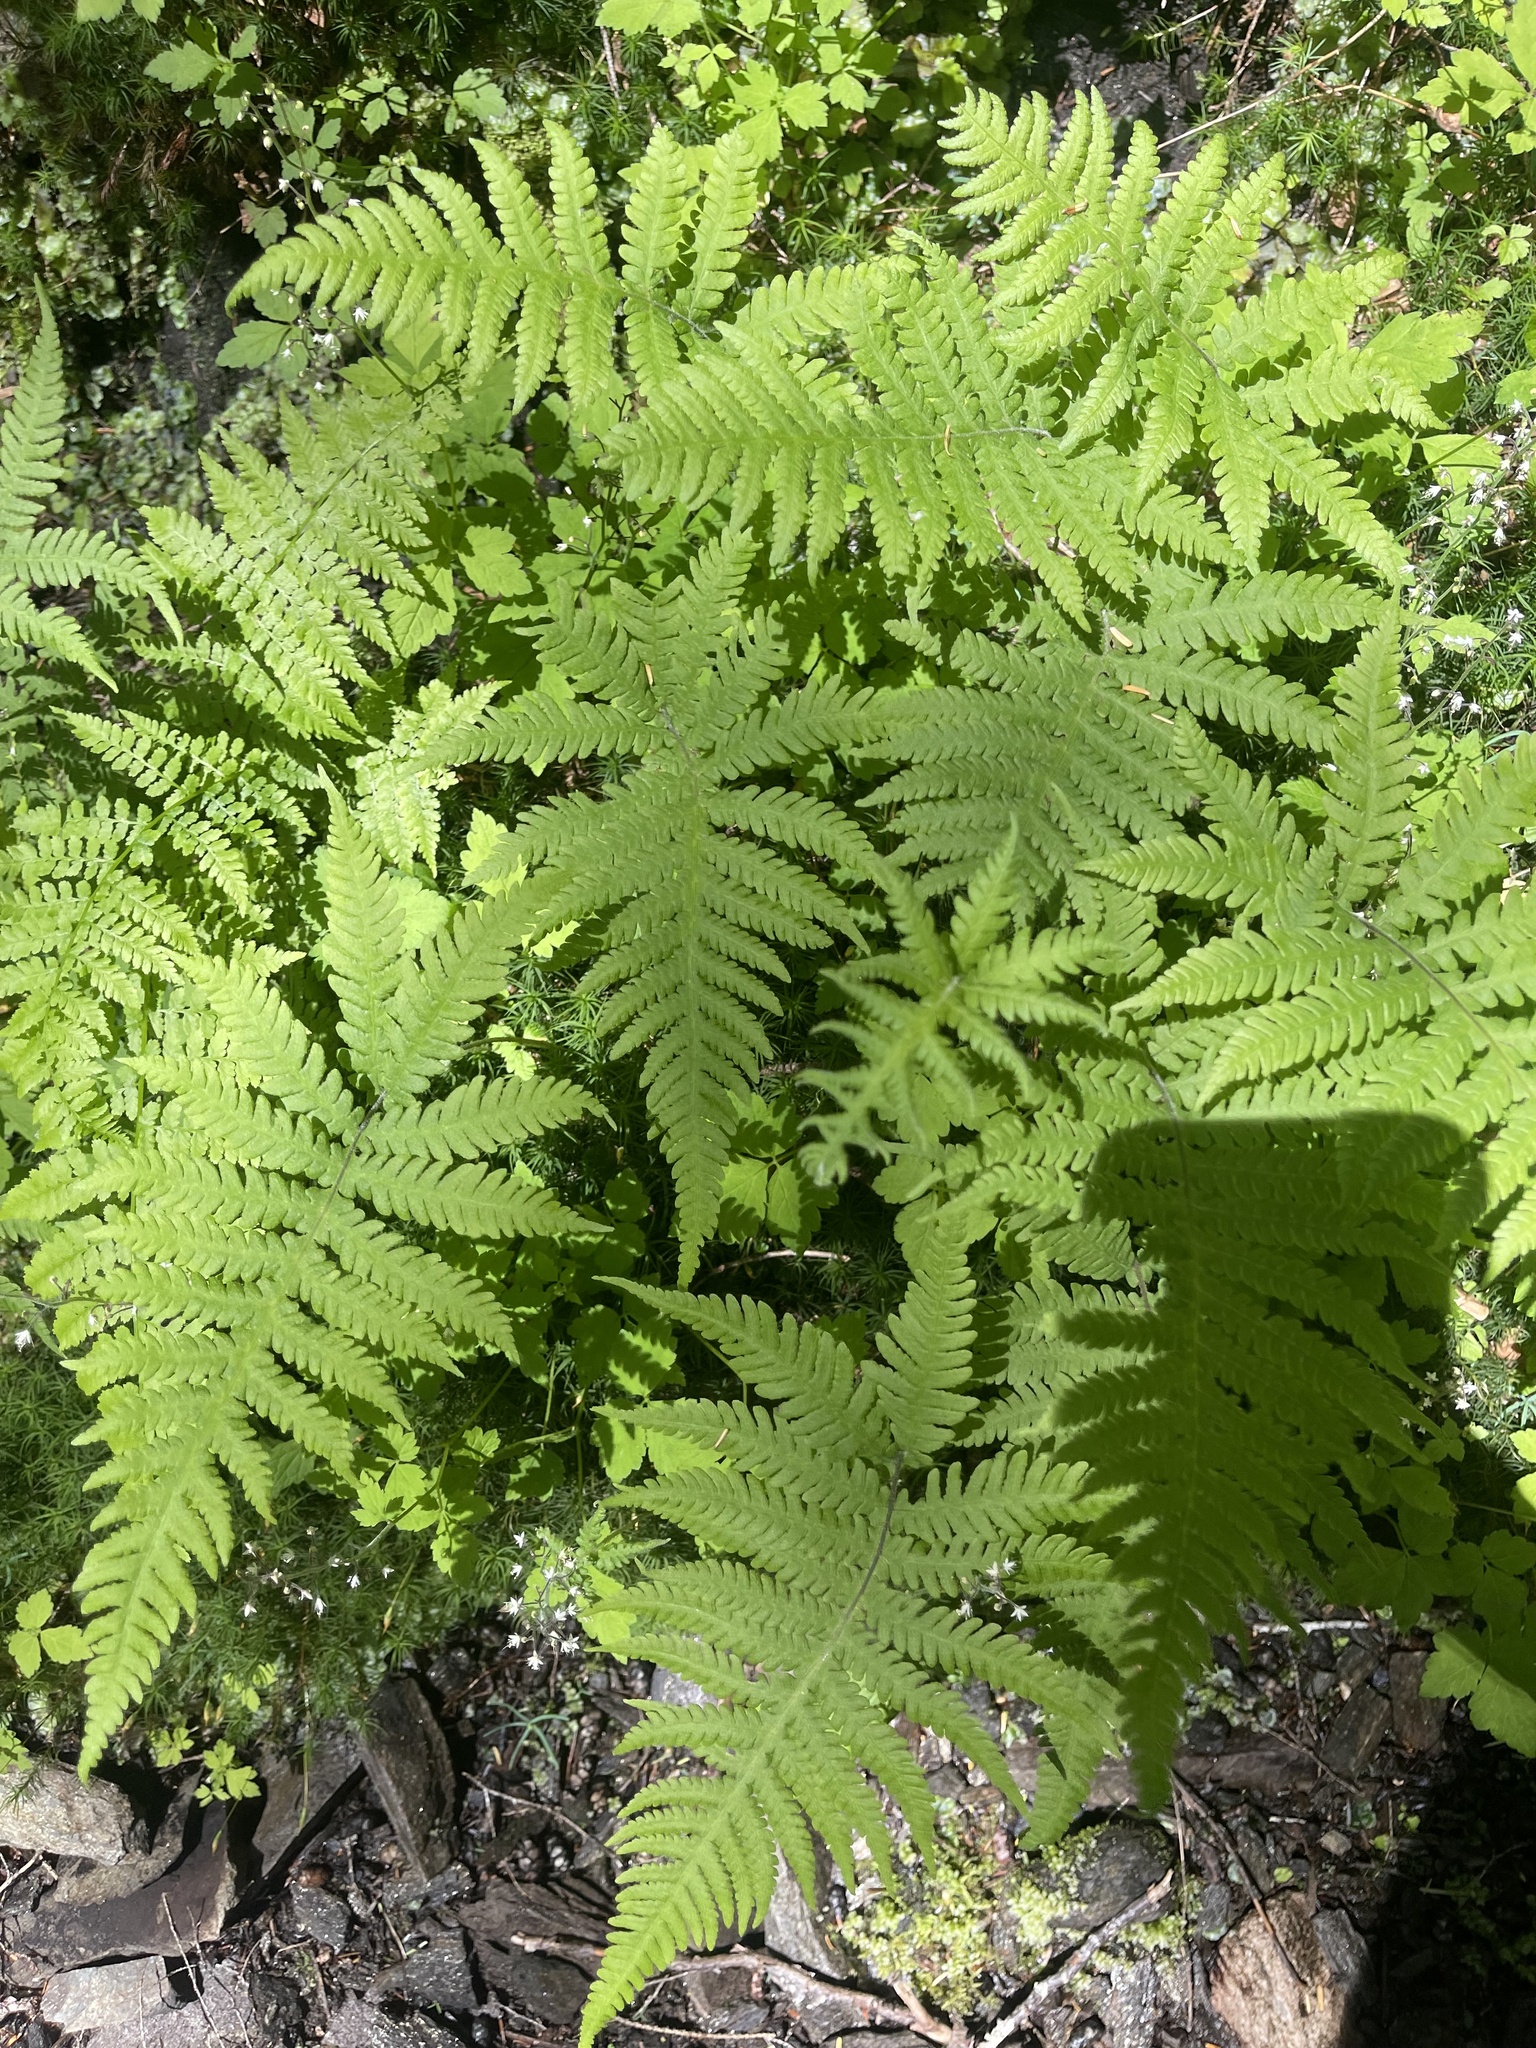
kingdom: Plantae
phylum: Tracheophyta
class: Polypodiopsida
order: Polypodiales
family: Thelypteridaceae
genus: Phegopteris
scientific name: Phegopteris connectilis
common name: Beech fern
